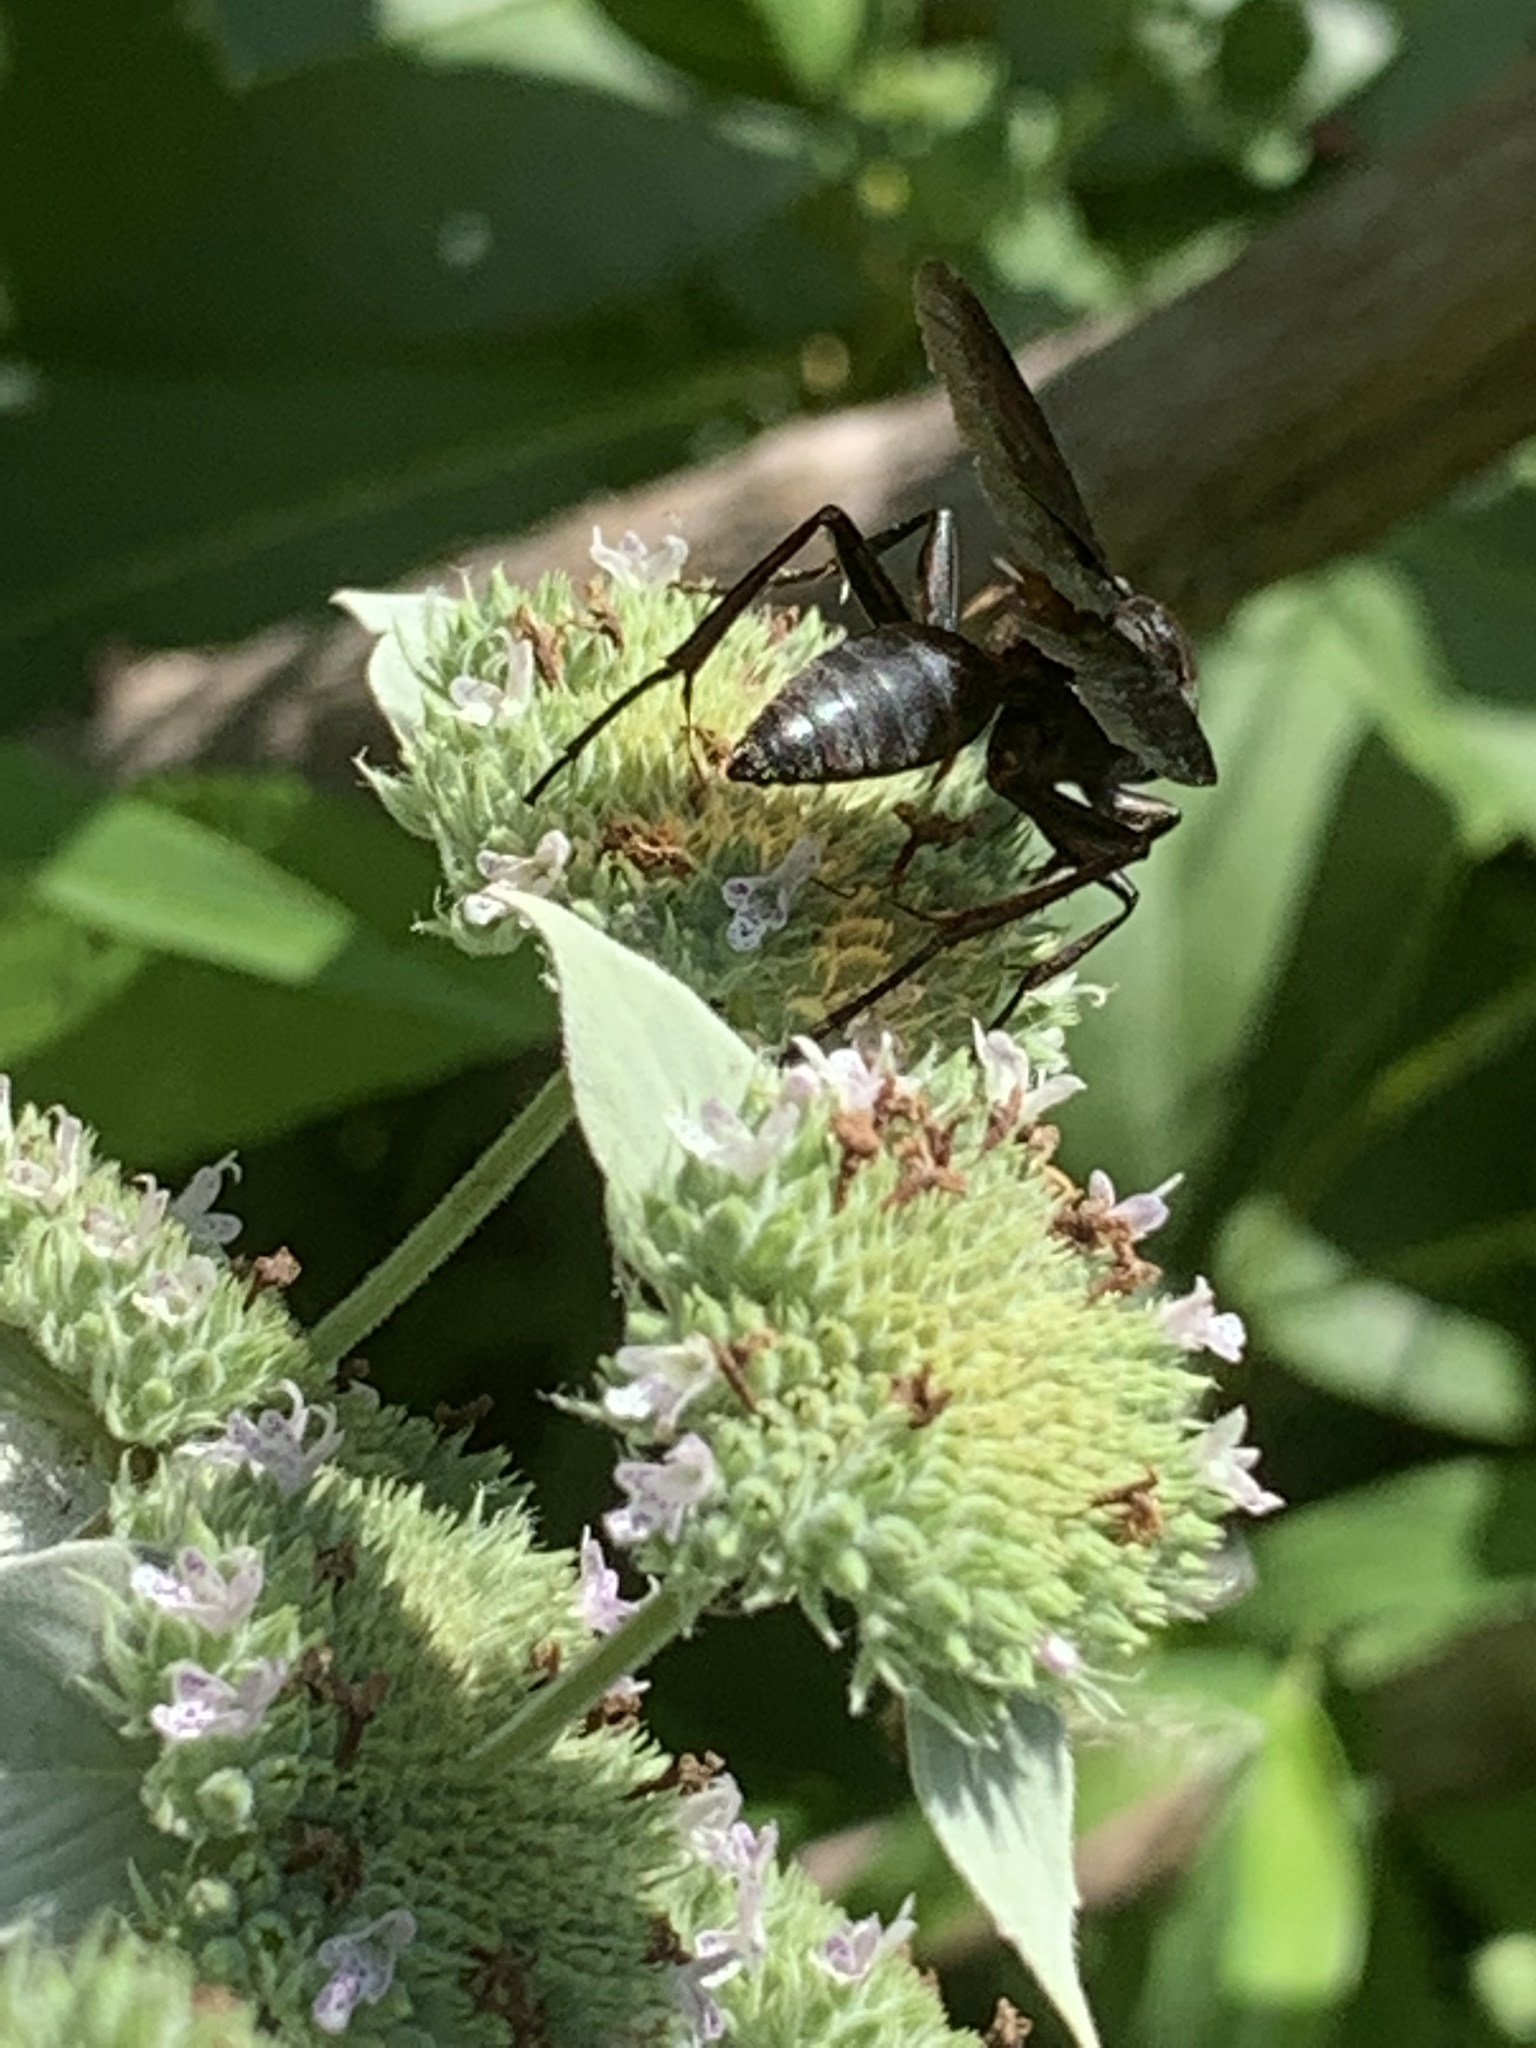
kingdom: Animalia
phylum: Arthropoda
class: Insecta
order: Hymenoptera
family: Sphecidae
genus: Sphex
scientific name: Sphex pensylvanicus
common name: Great black digger wasp
